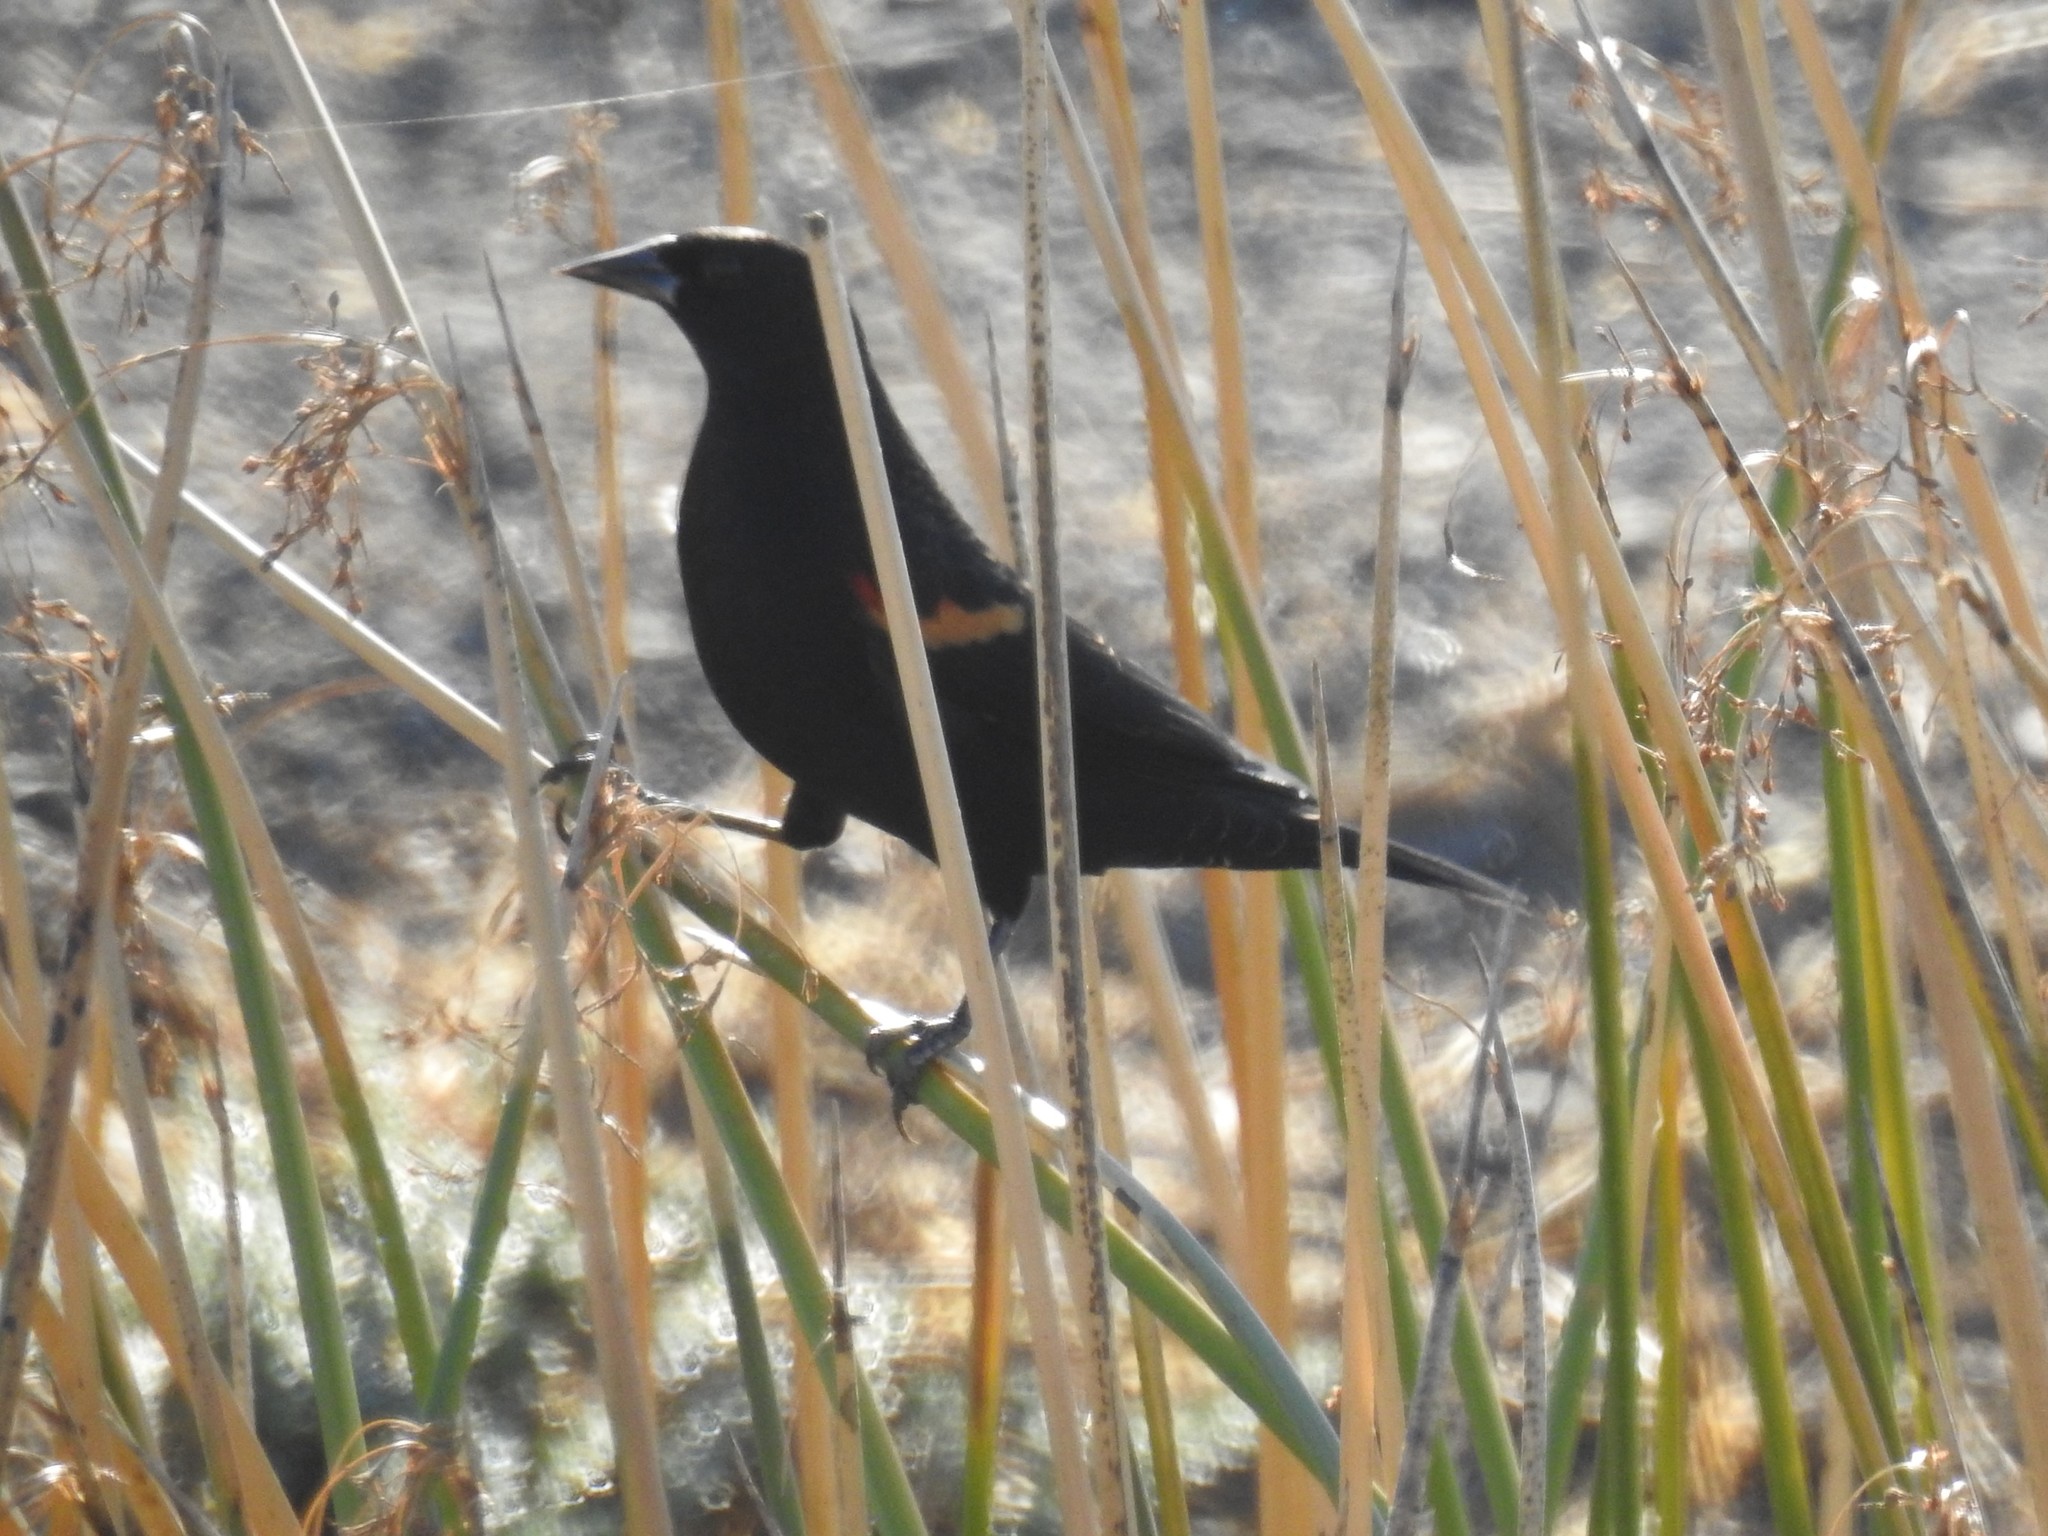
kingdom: Animalia
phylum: Chordata
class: Aves
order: Passeriformes
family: Icteridae
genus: Agelaius
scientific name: Agelaius phoeniceus
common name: Red-winged blackbird
